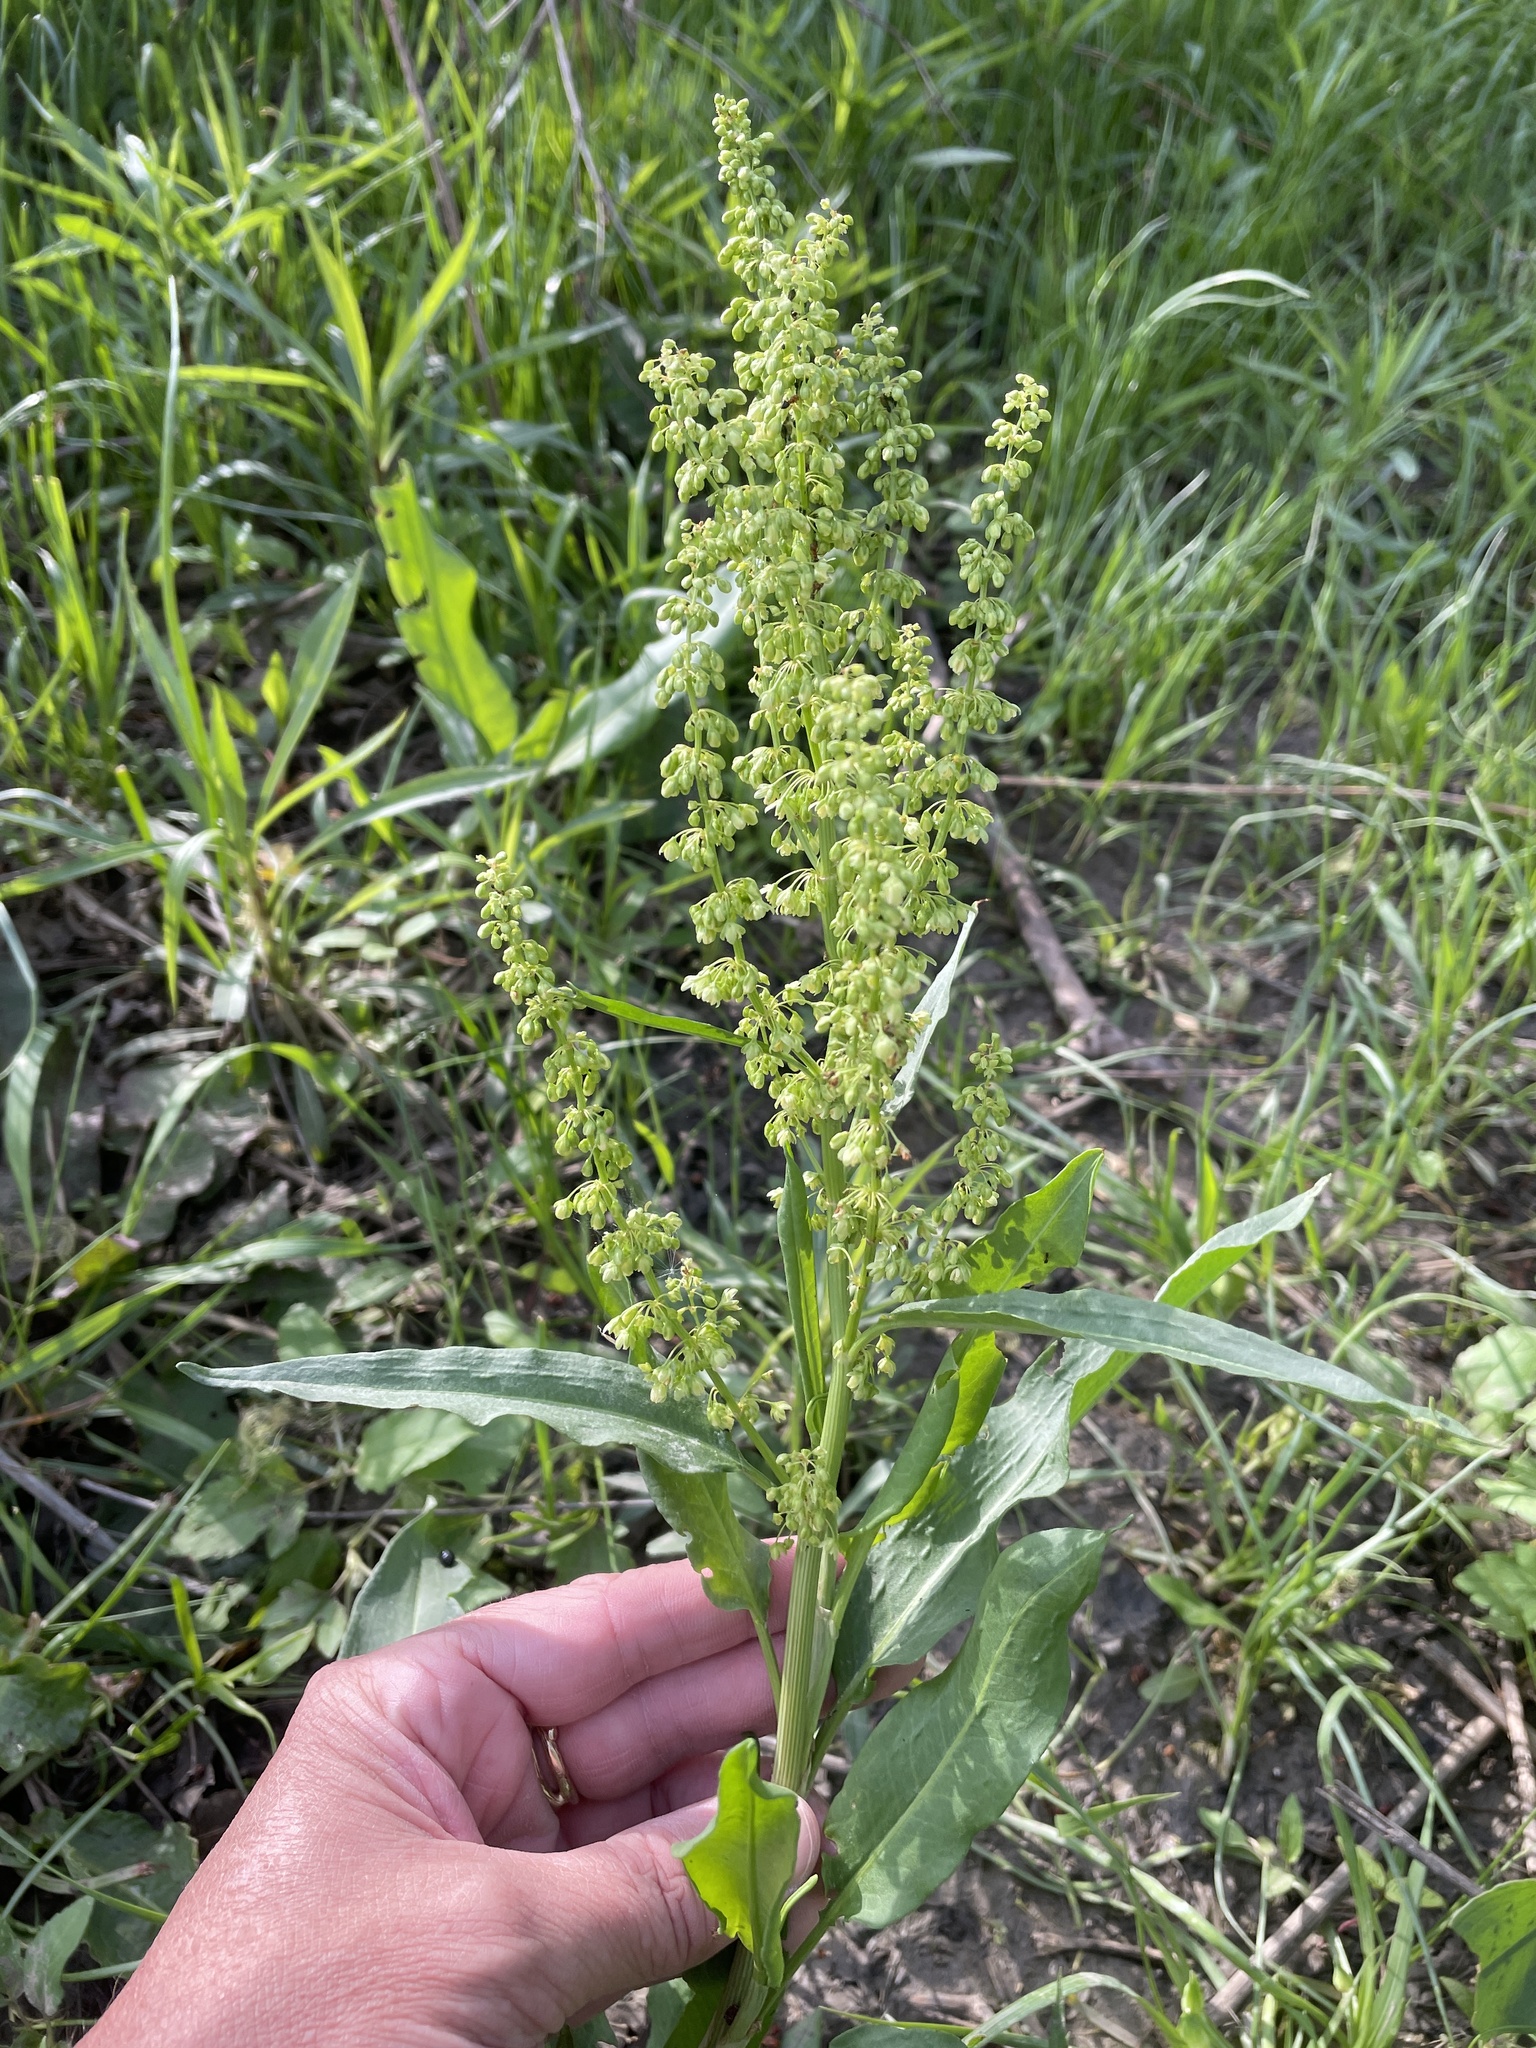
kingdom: Plantae
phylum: Tracheophyta
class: Magnoliopsida
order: Caryophyllales
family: Polygonaceae
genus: Rumex
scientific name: Rumex crispus
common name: Curled dock
